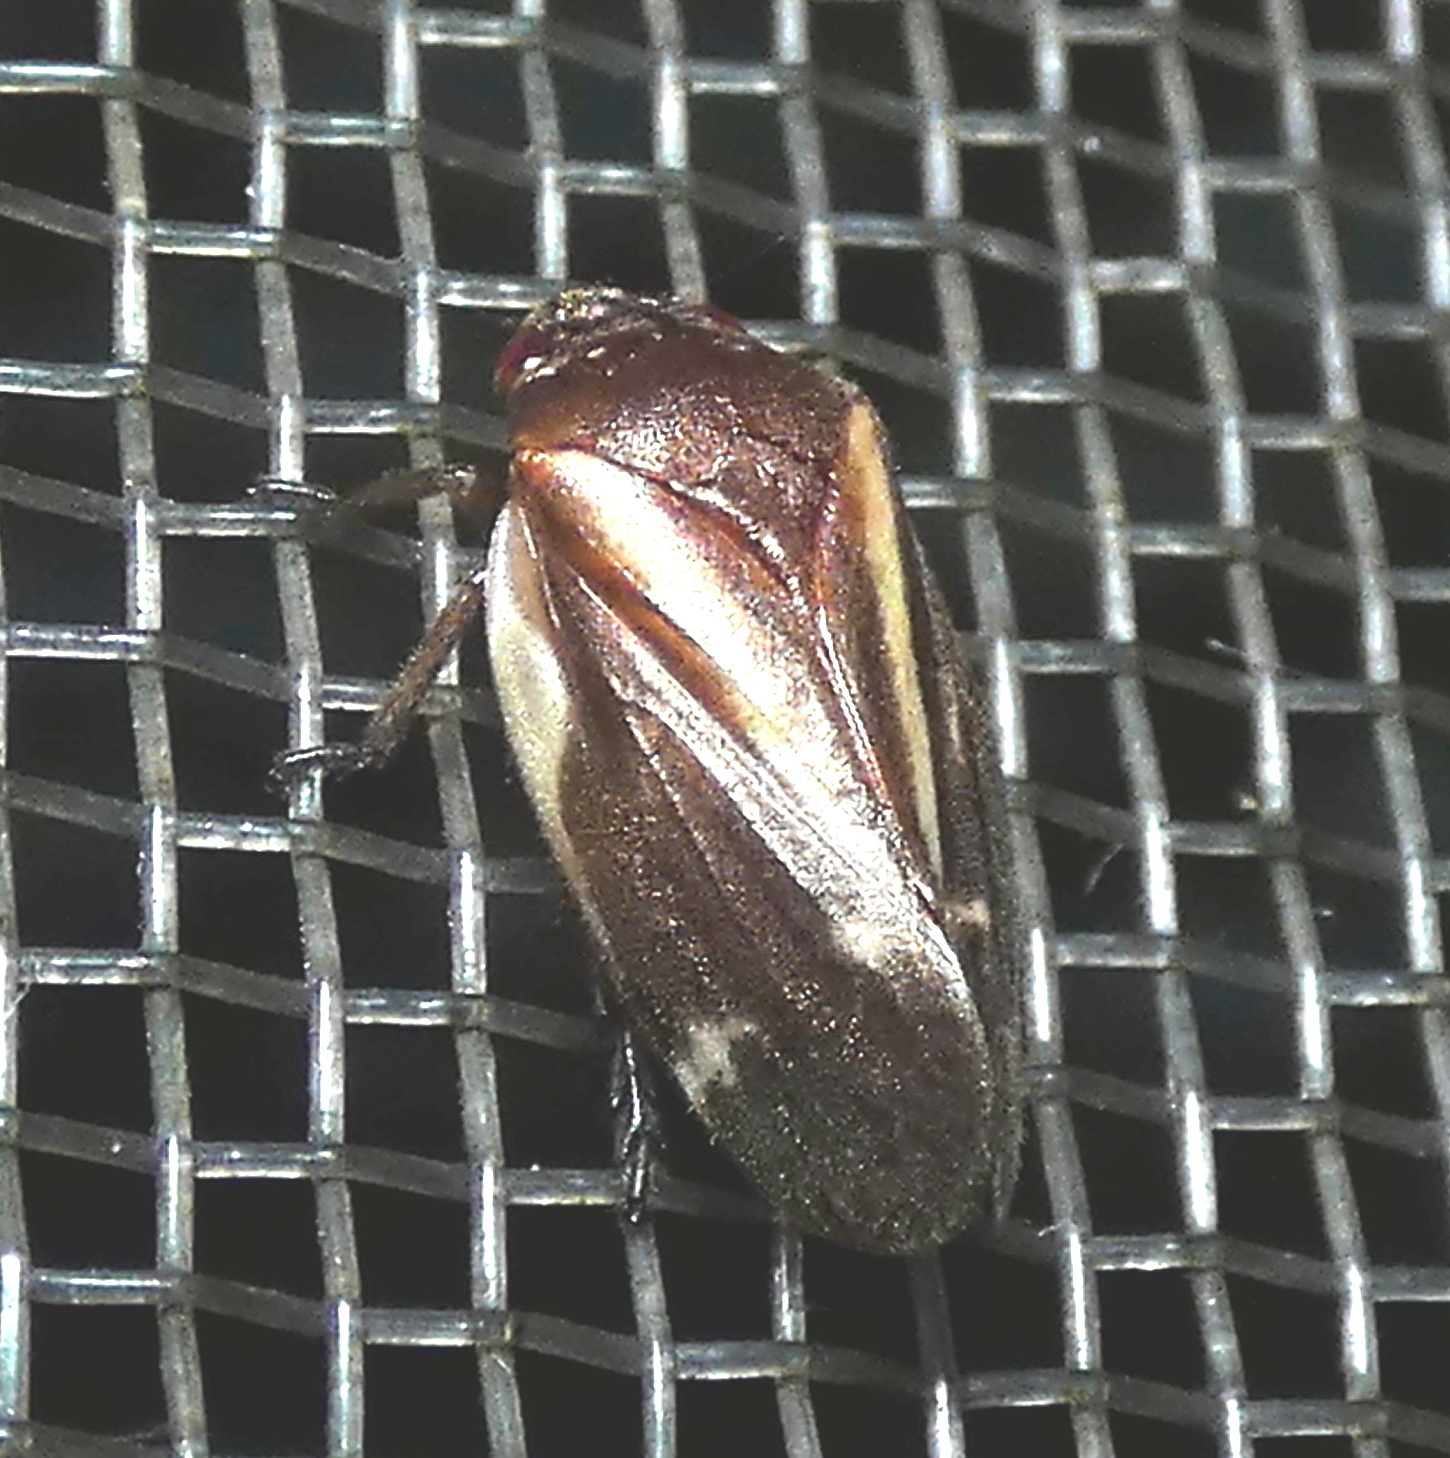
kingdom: Animalia
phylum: Arthropoda
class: Insecta
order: Hemiptera
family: Cercopidae
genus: Deois
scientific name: Deois incompleta
